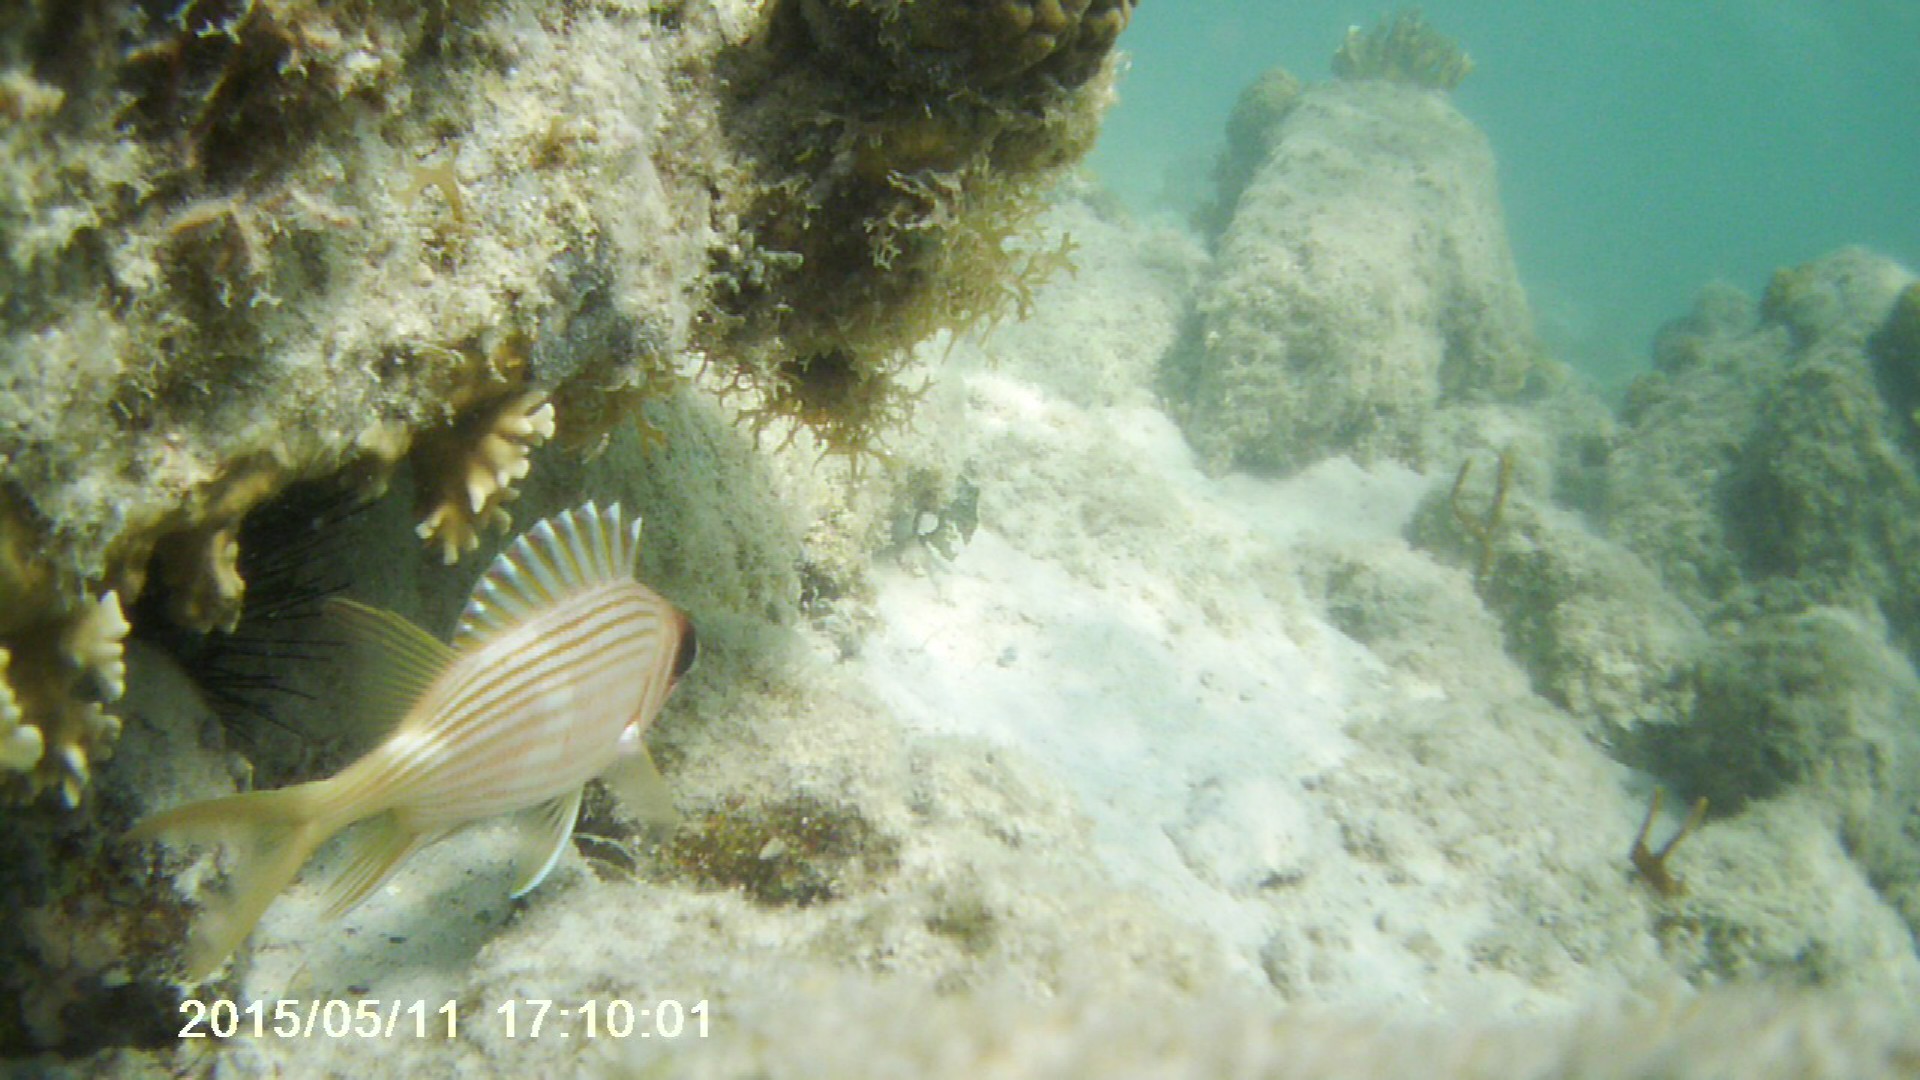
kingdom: Animalia
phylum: Chordata
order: Beryciformes
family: Holocentridae
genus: Holocentrus
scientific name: Holocentrus rufus
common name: Longspine squirrelfish
